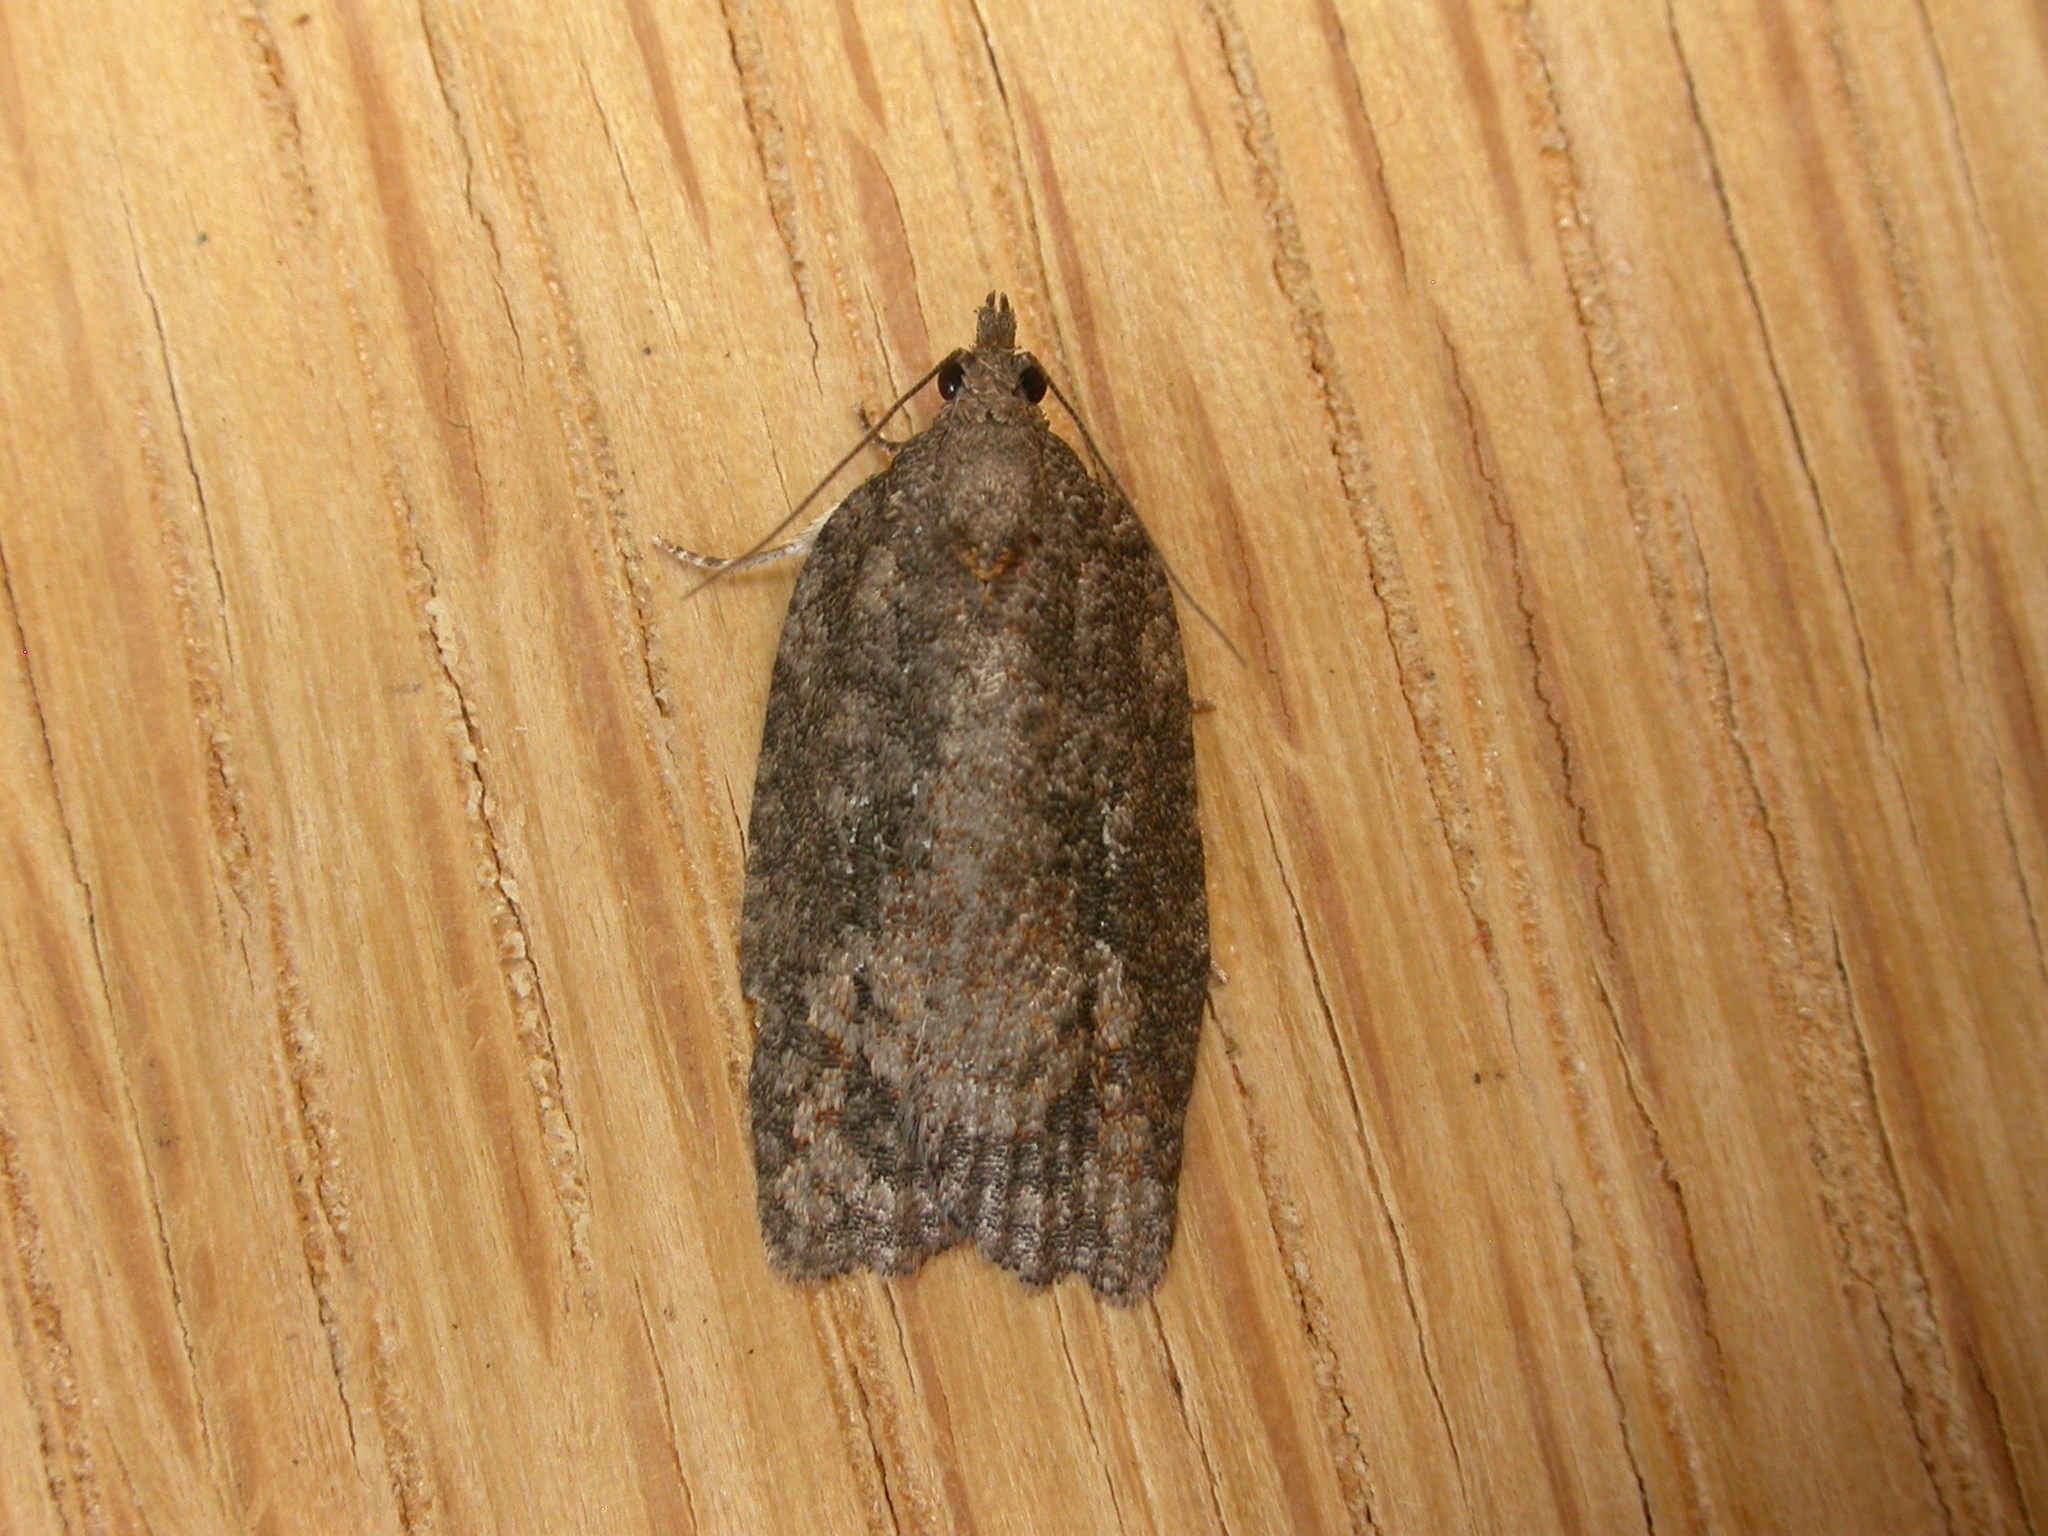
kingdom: Animalia
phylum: Arthropoda
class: Insecta
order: Lepidoptera
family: Tortricidae
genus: Acropolitis
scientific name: Acropolitis excelsa
